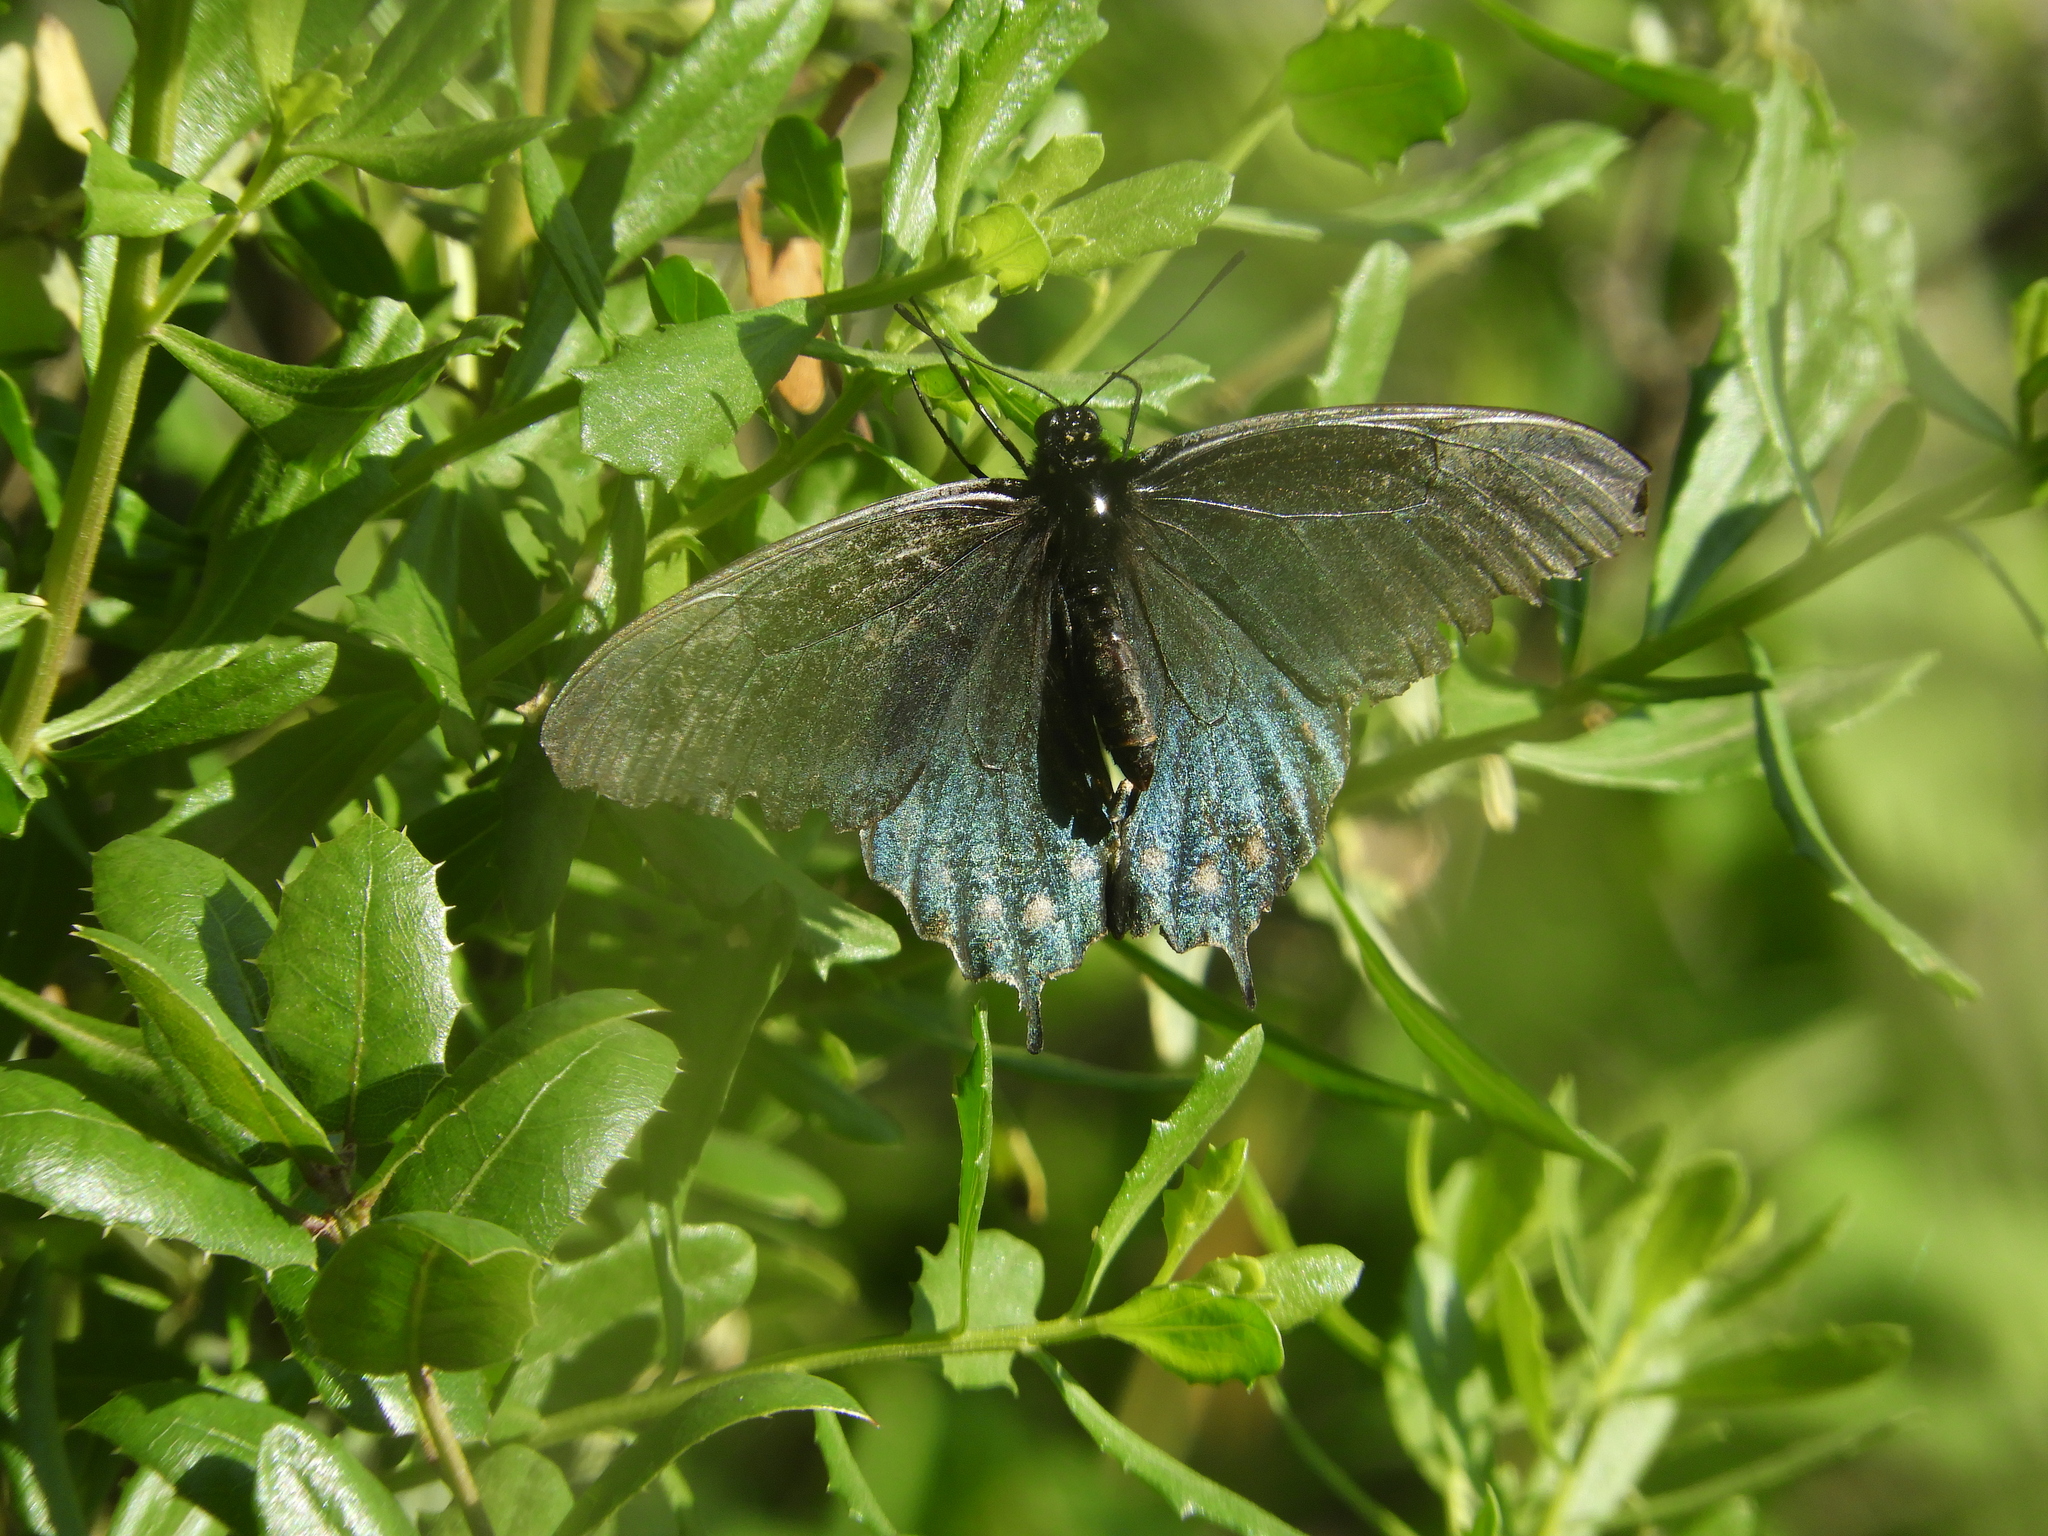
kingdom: Animalia
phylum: Arthropoda
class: Insecta
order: Lepidoptera
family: Papilionidae
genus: Battus
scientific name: Battus philenor
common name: Pipevine swallowtail
